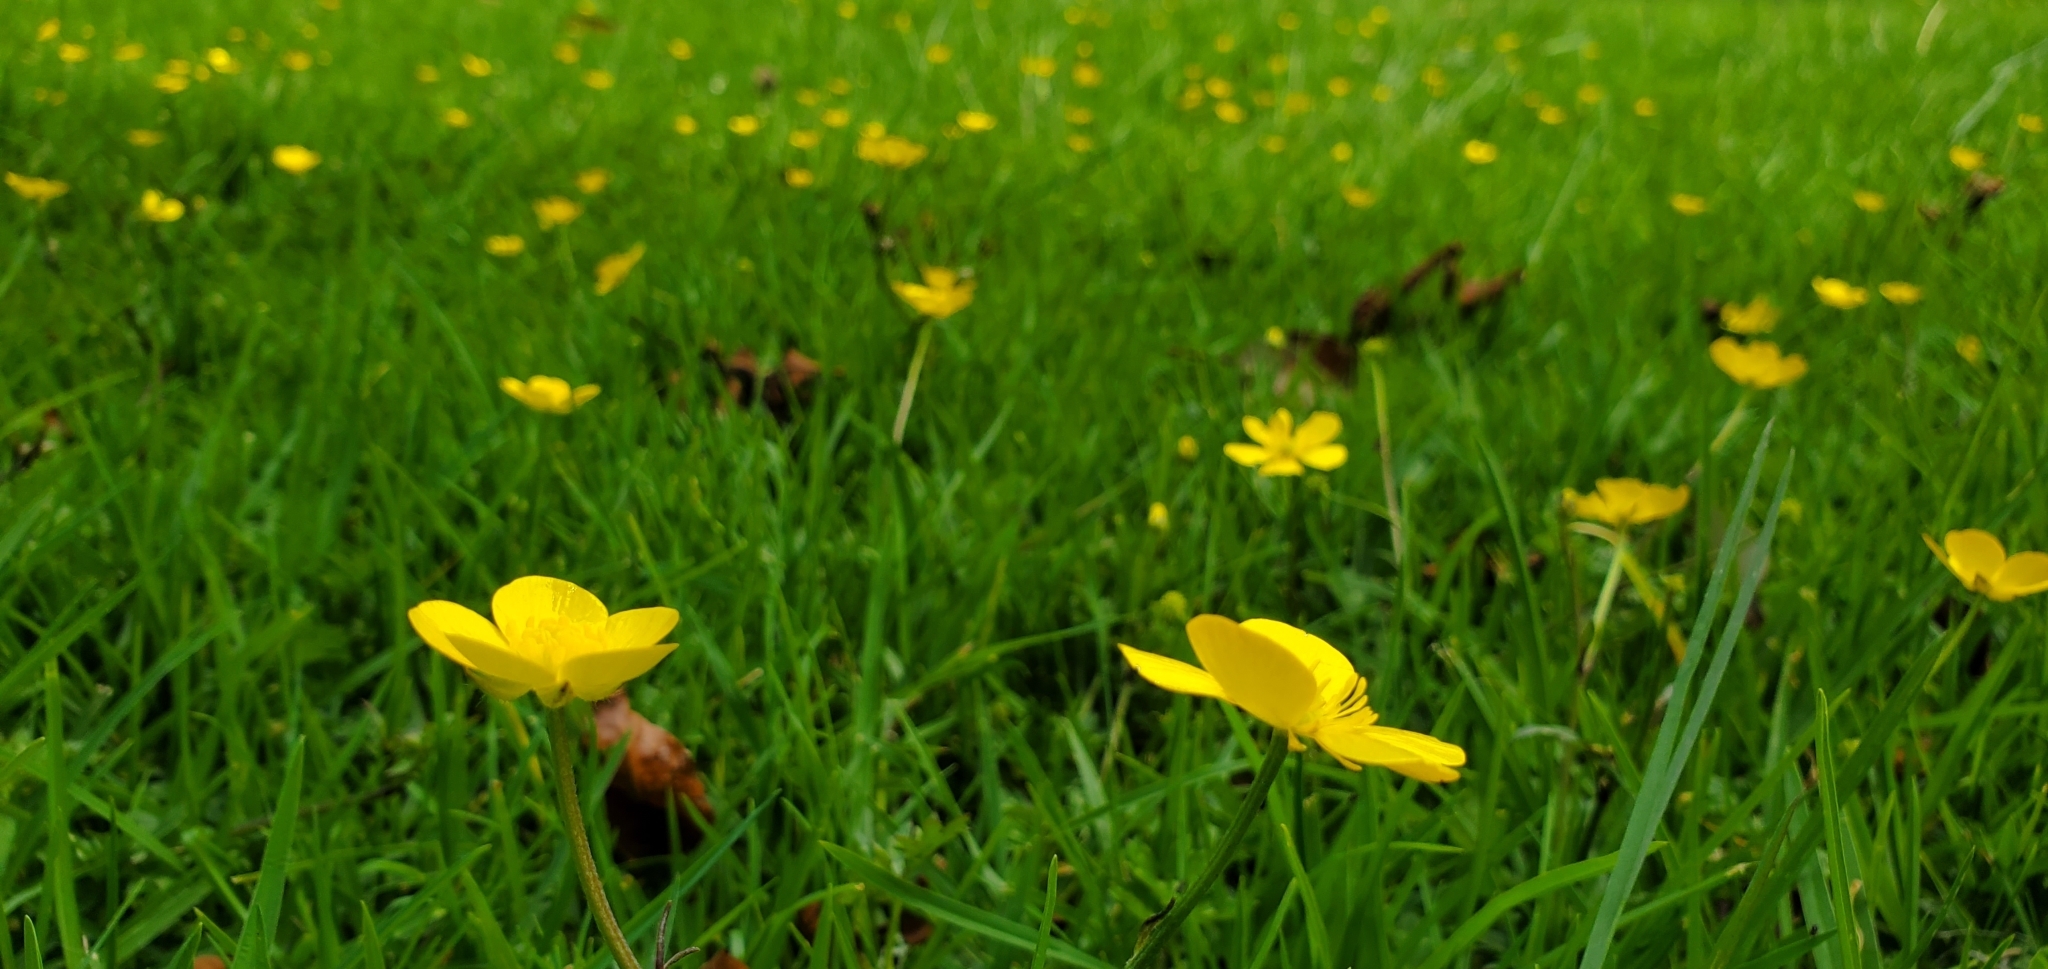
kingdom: Plantae
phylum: Tracheophyta
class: Magnoliopsida
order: Ranunculales
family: Ranunculaceae
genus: Ranunculus
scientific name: Ranunculus repens
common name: Creeping buttercup
